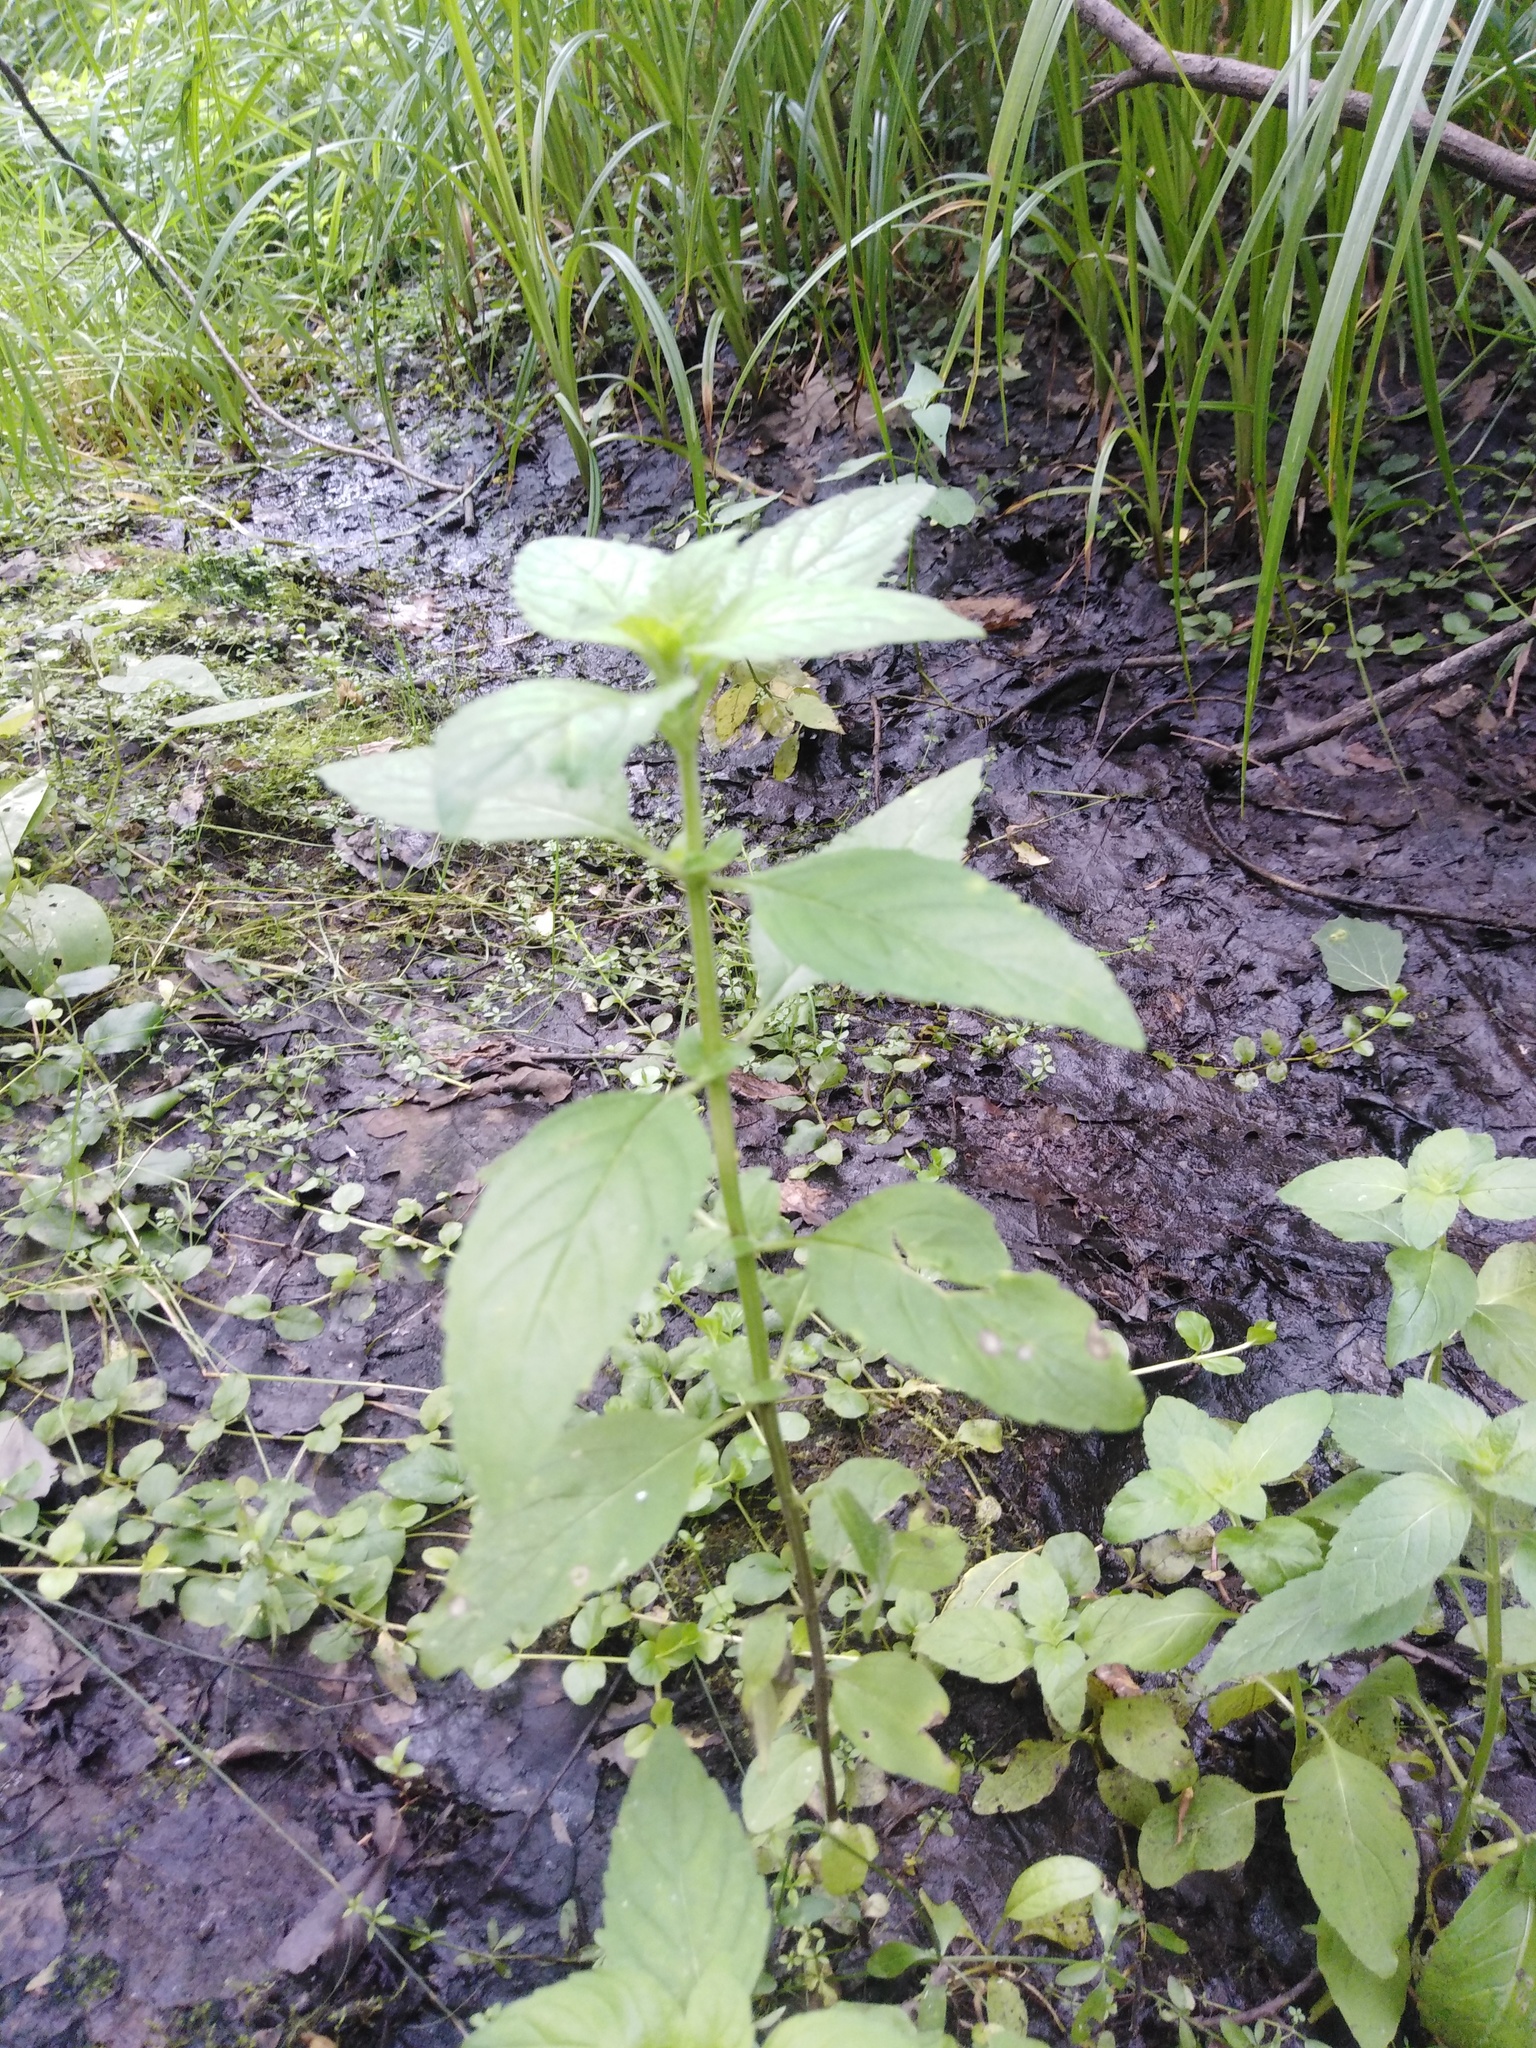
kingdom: Plantae
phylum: Tracheophyta
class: Magnoliopsida
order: Lamiales
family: Lamiaceae
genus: Mentha
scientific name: Mentha arvensis
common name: Corn mint
